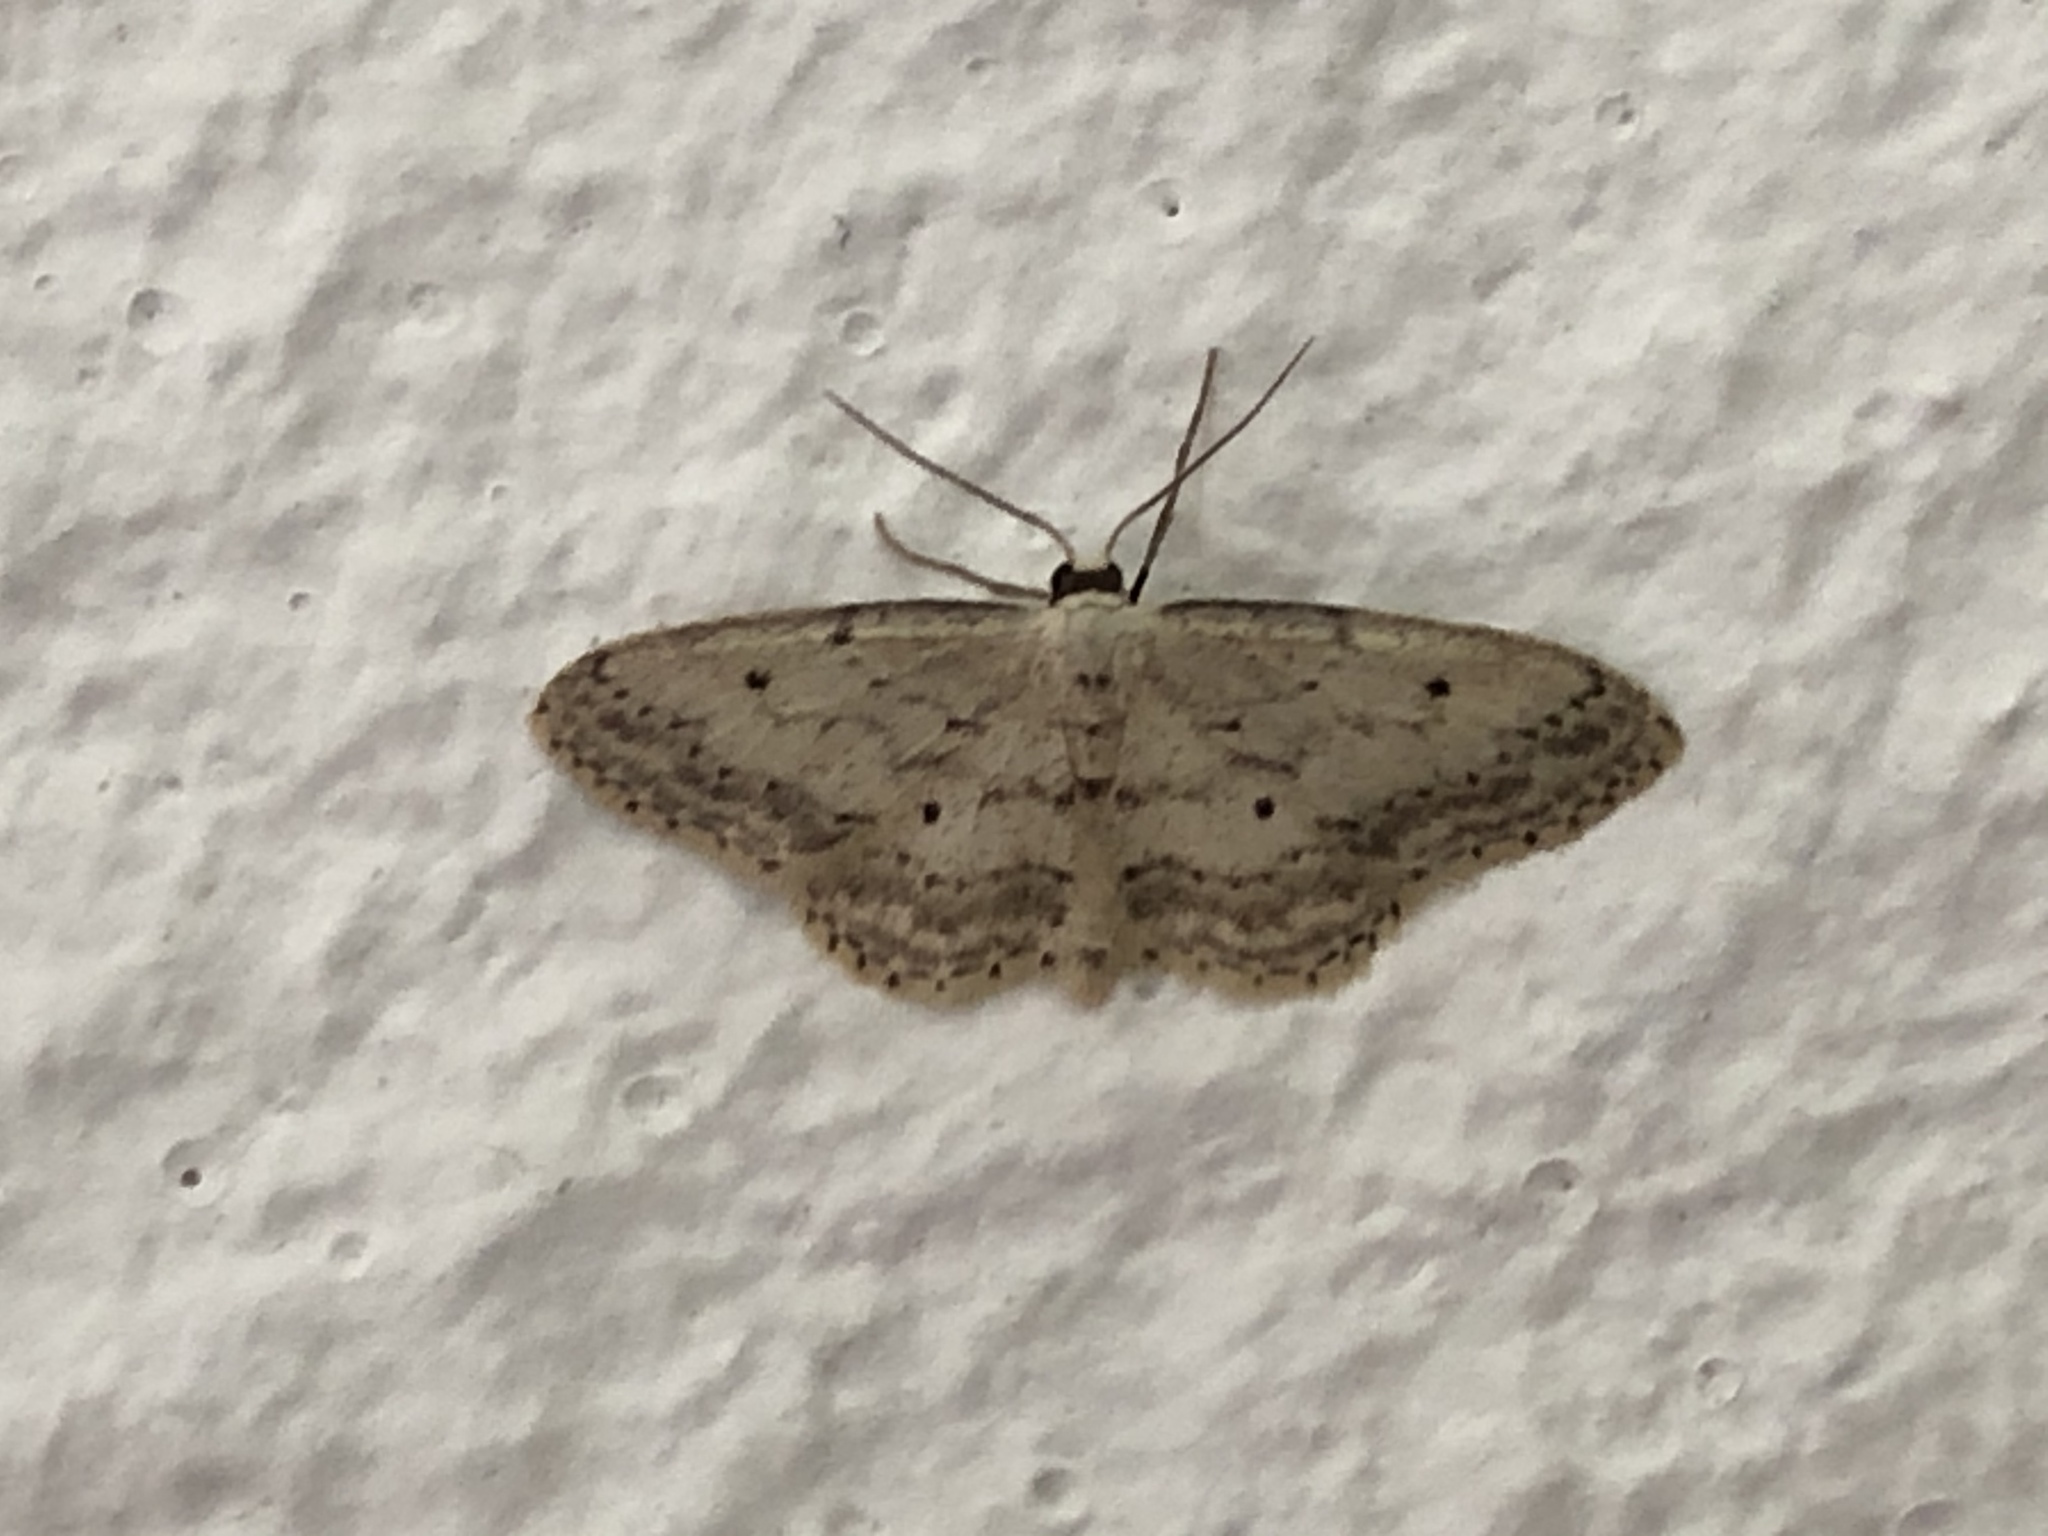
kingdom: Animalia
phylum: Arthropoda
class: Insecta
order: Lepidoptera
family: Geometridae
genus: Idaea
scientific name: Idaea seriata
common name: Small dusty wave
